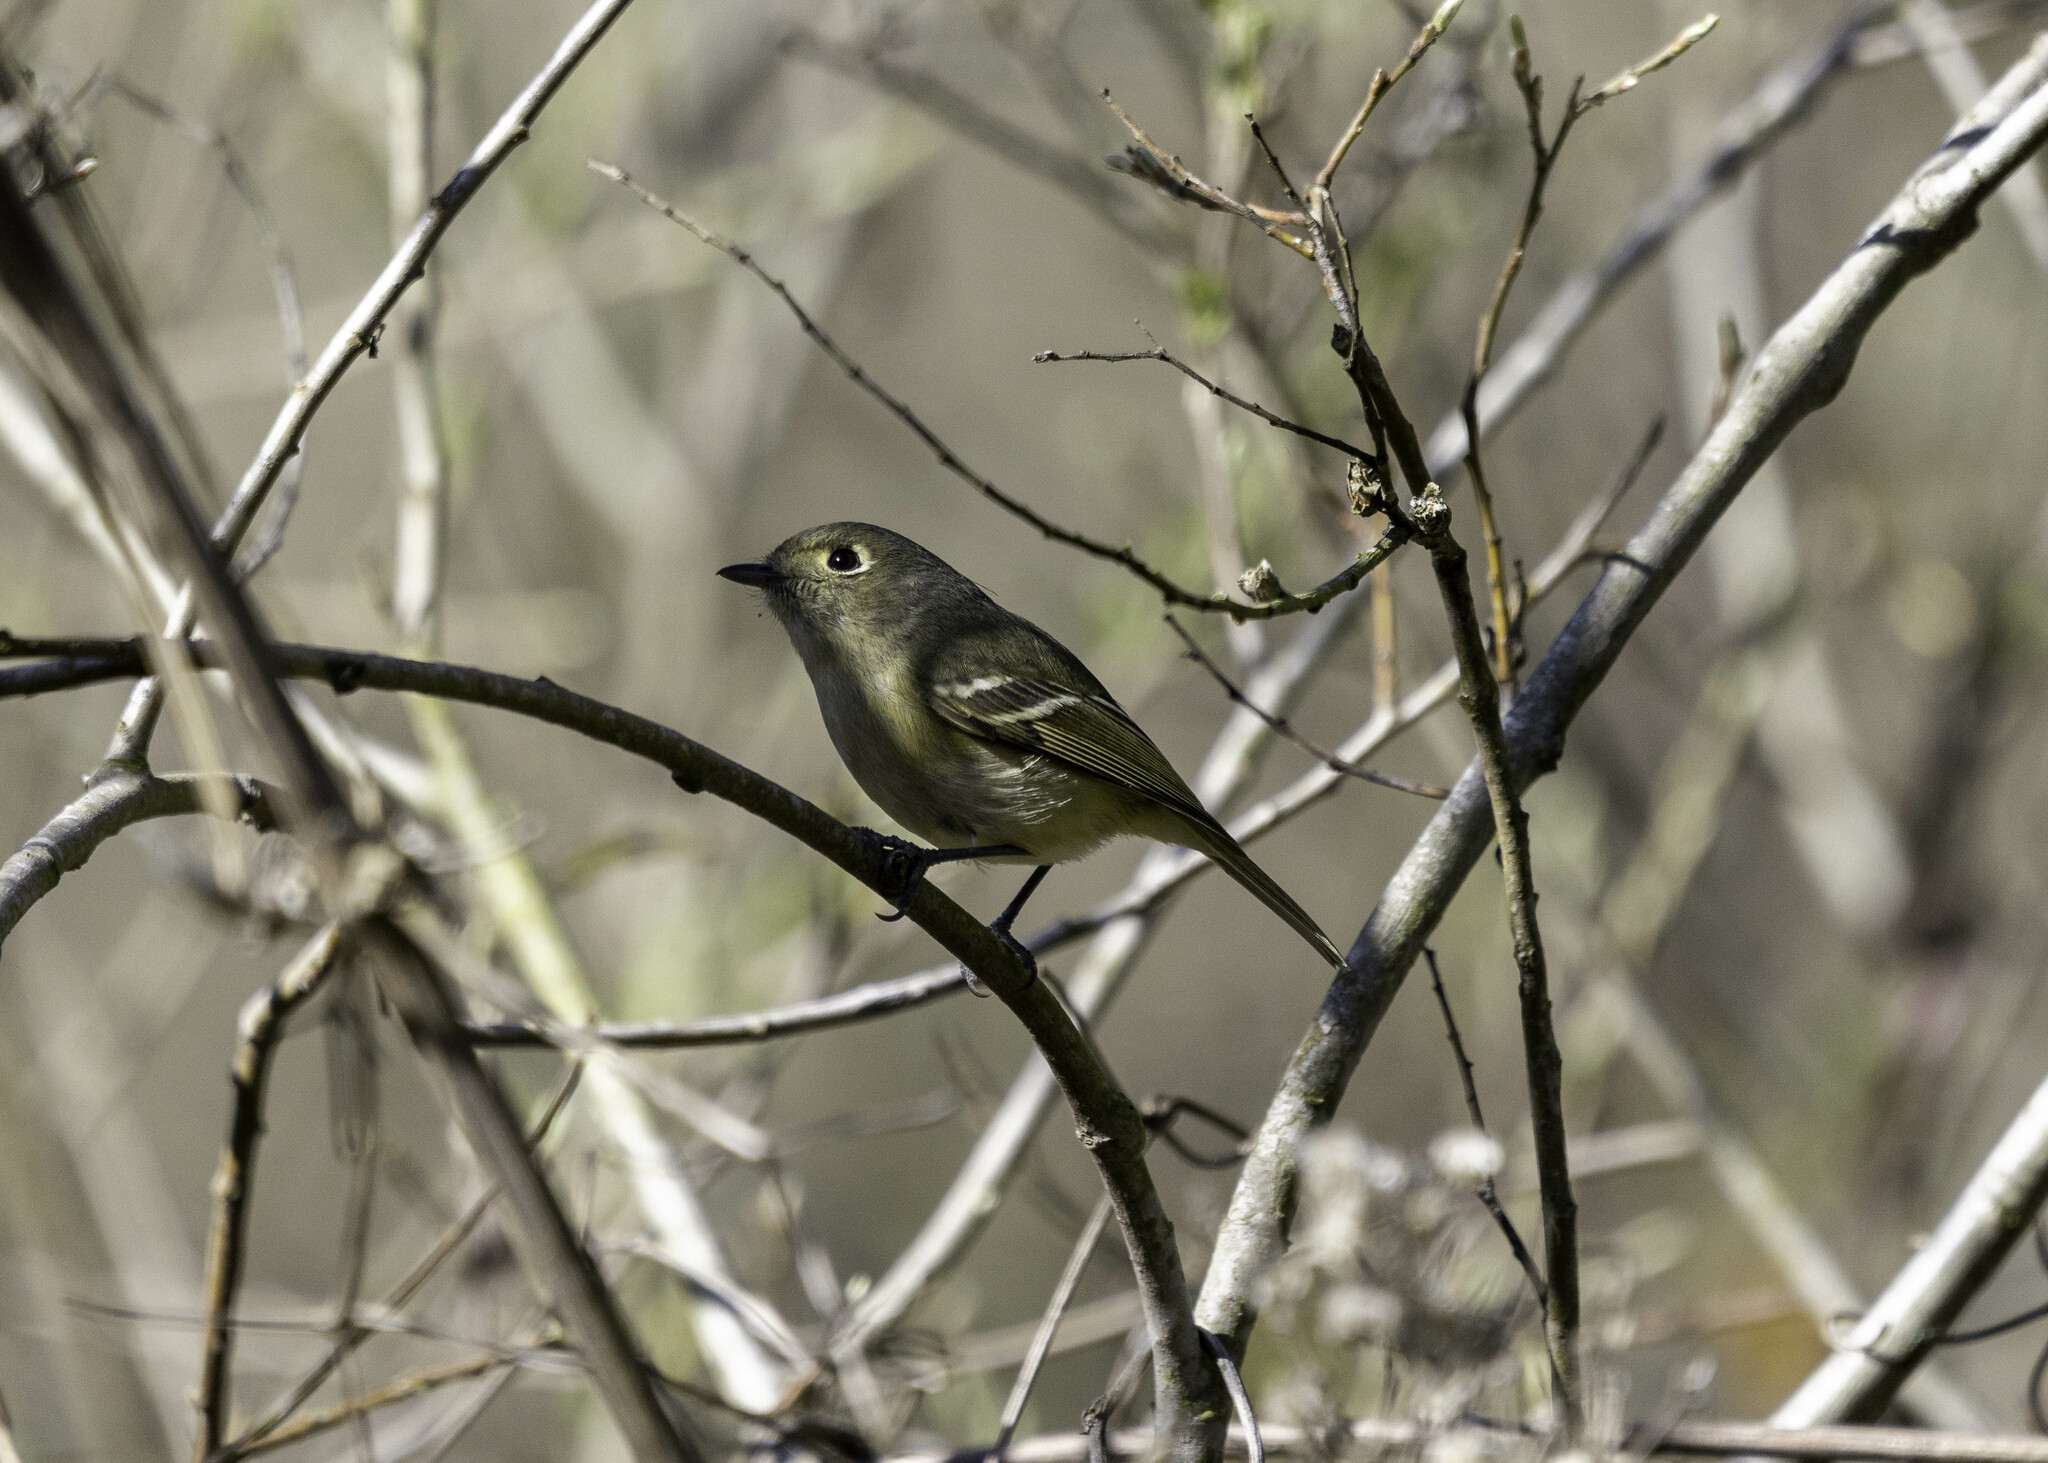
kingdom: Animalia
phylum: Chordata
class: Aves
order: Passeriformes
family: Vireonidae
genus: Vireo
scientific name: Vireo huttoni
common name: Hutton's vireo
